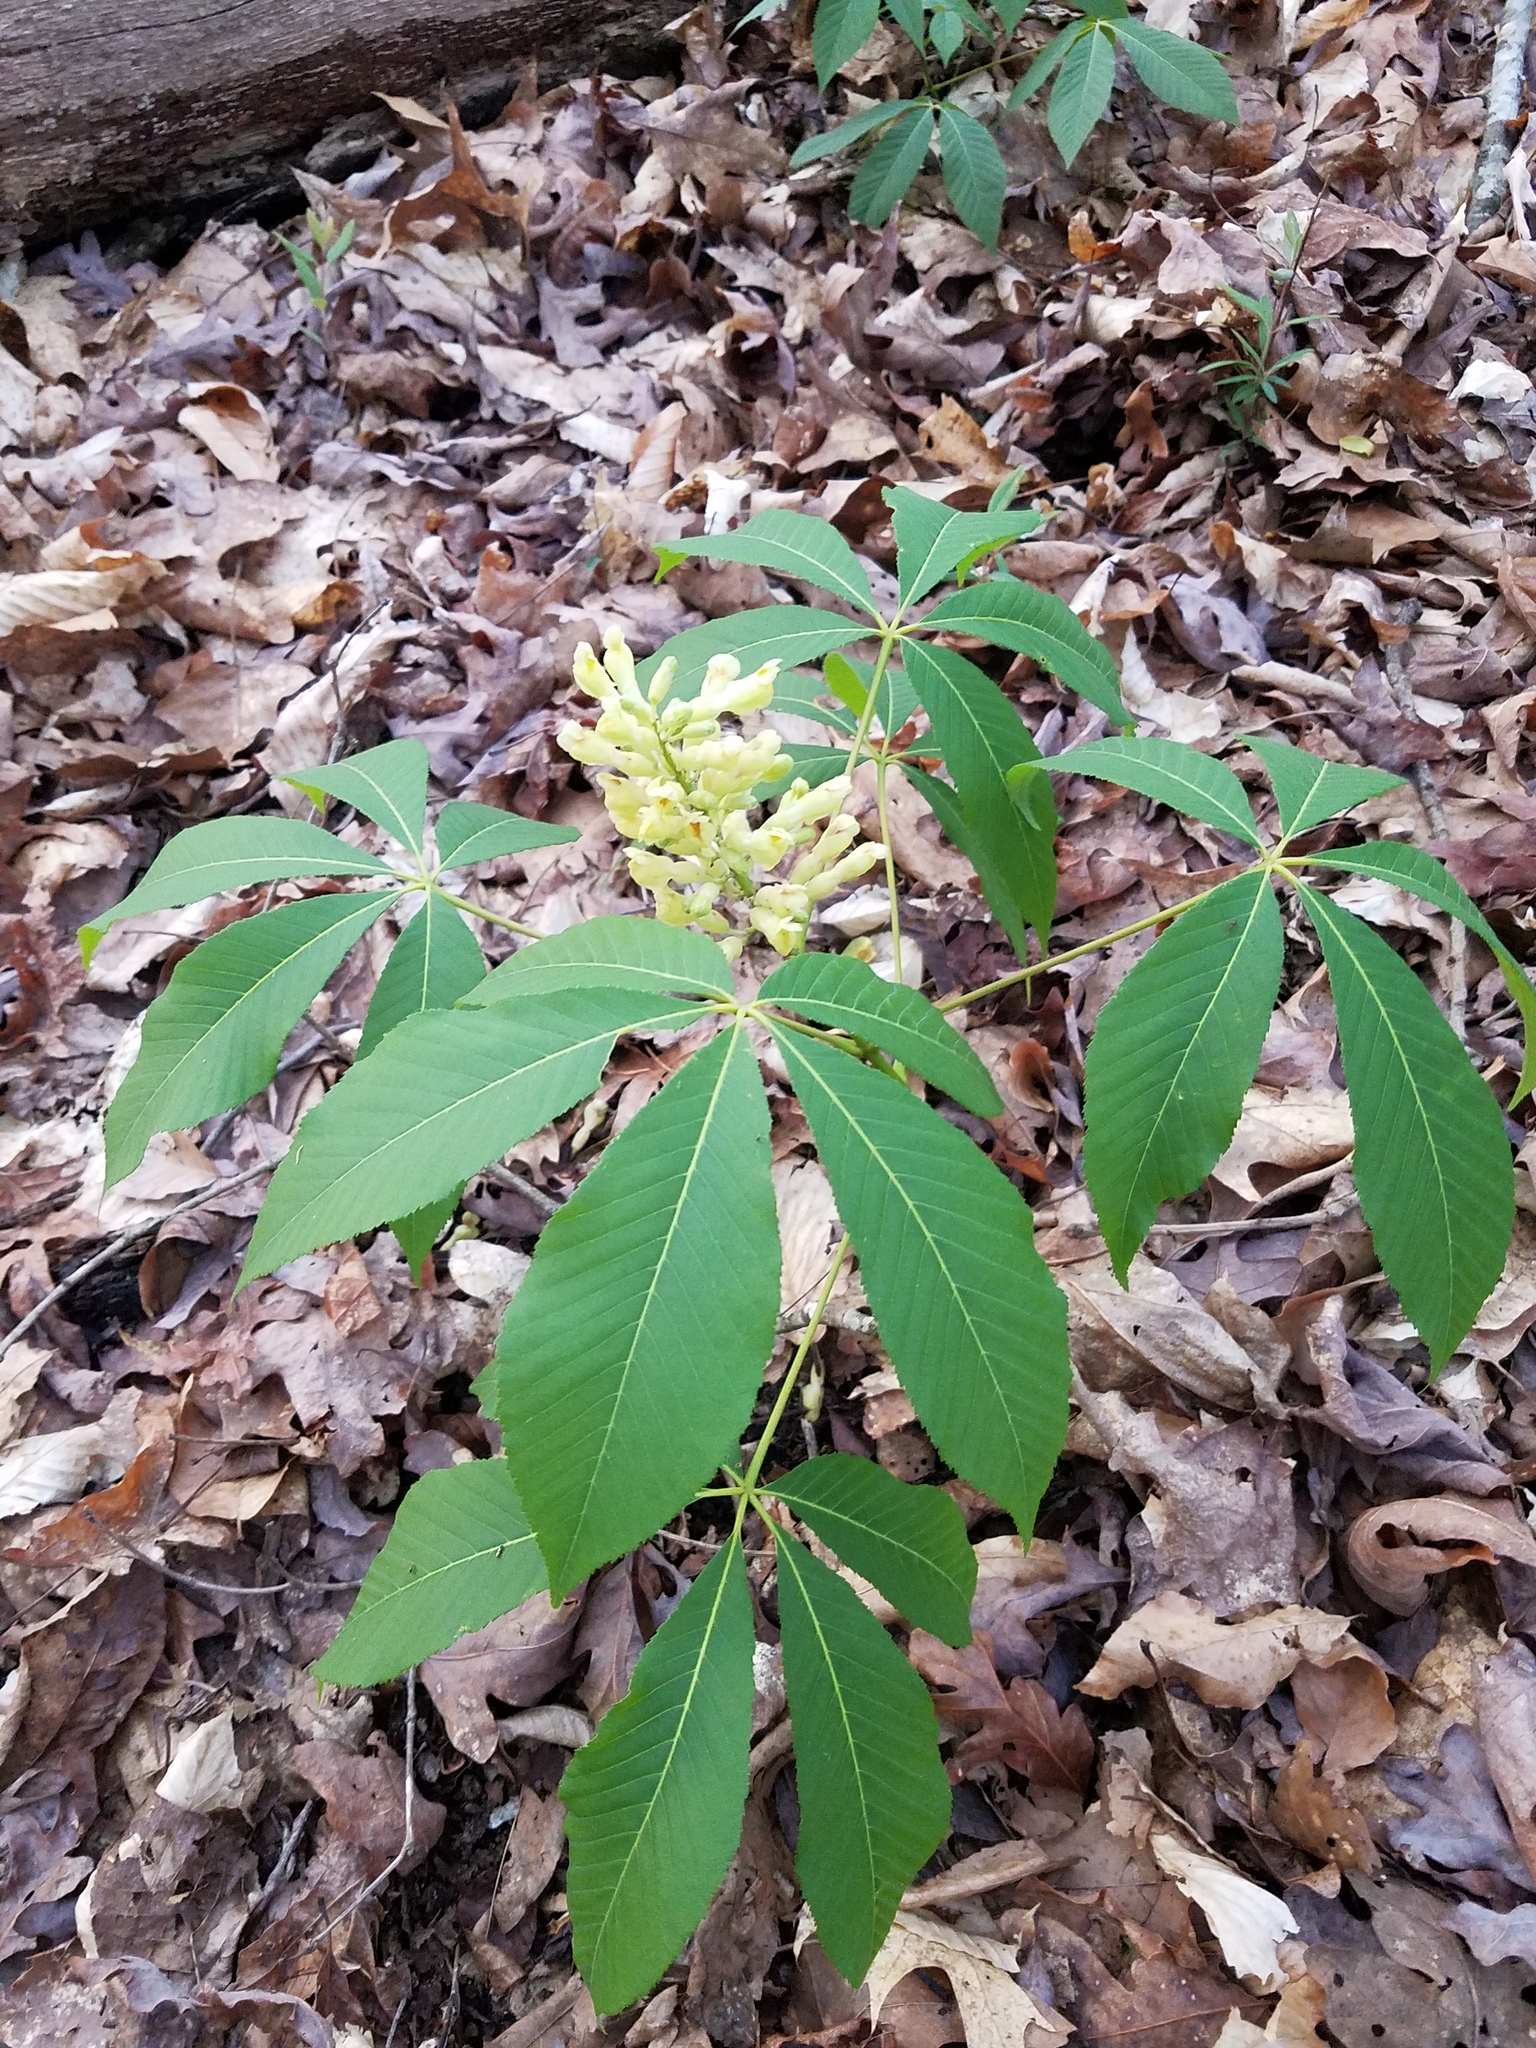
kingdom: Plantae
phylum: Tracheophyta
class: Magnoliopsida
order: Sapindales
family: Sapindaceae
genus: Aesculus
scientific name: Aesculus sylvatica
